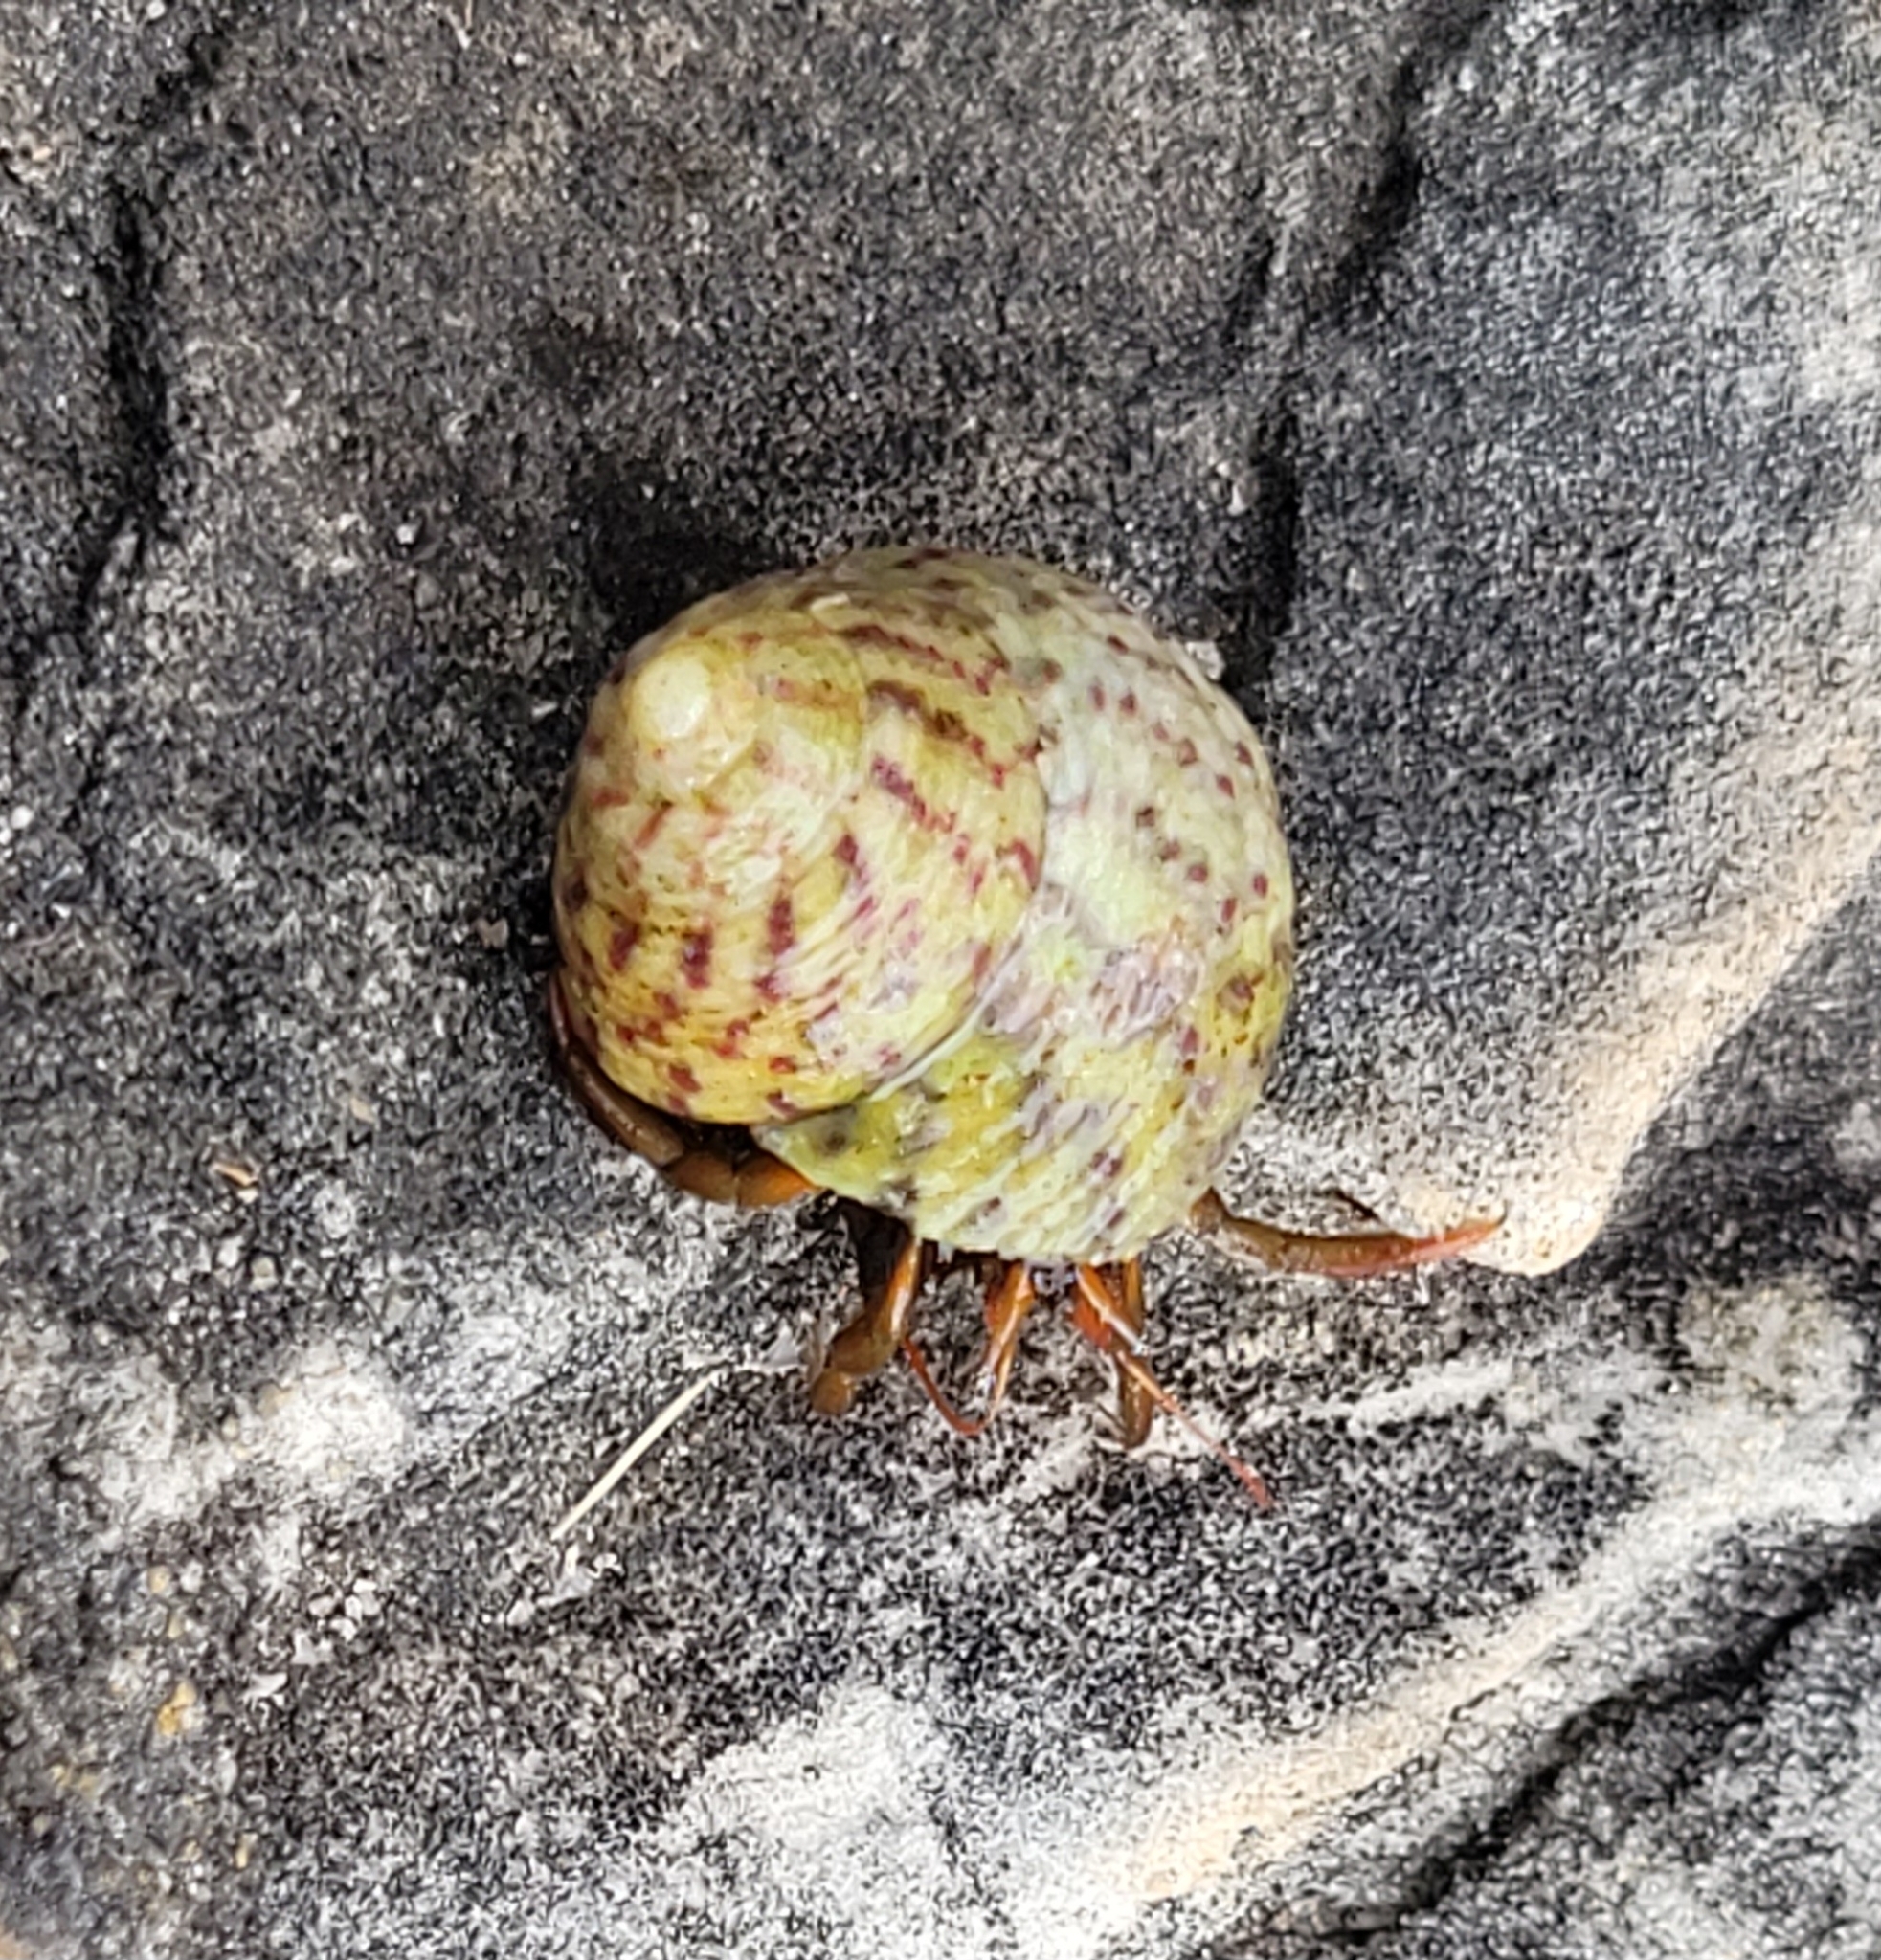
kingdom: Animalia
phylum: Arthropoda
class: Malacostraca
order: Decapoda
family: Diogenidae
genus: Clibanarius
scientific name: Clibanarius erythropus
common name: Hermit crab
